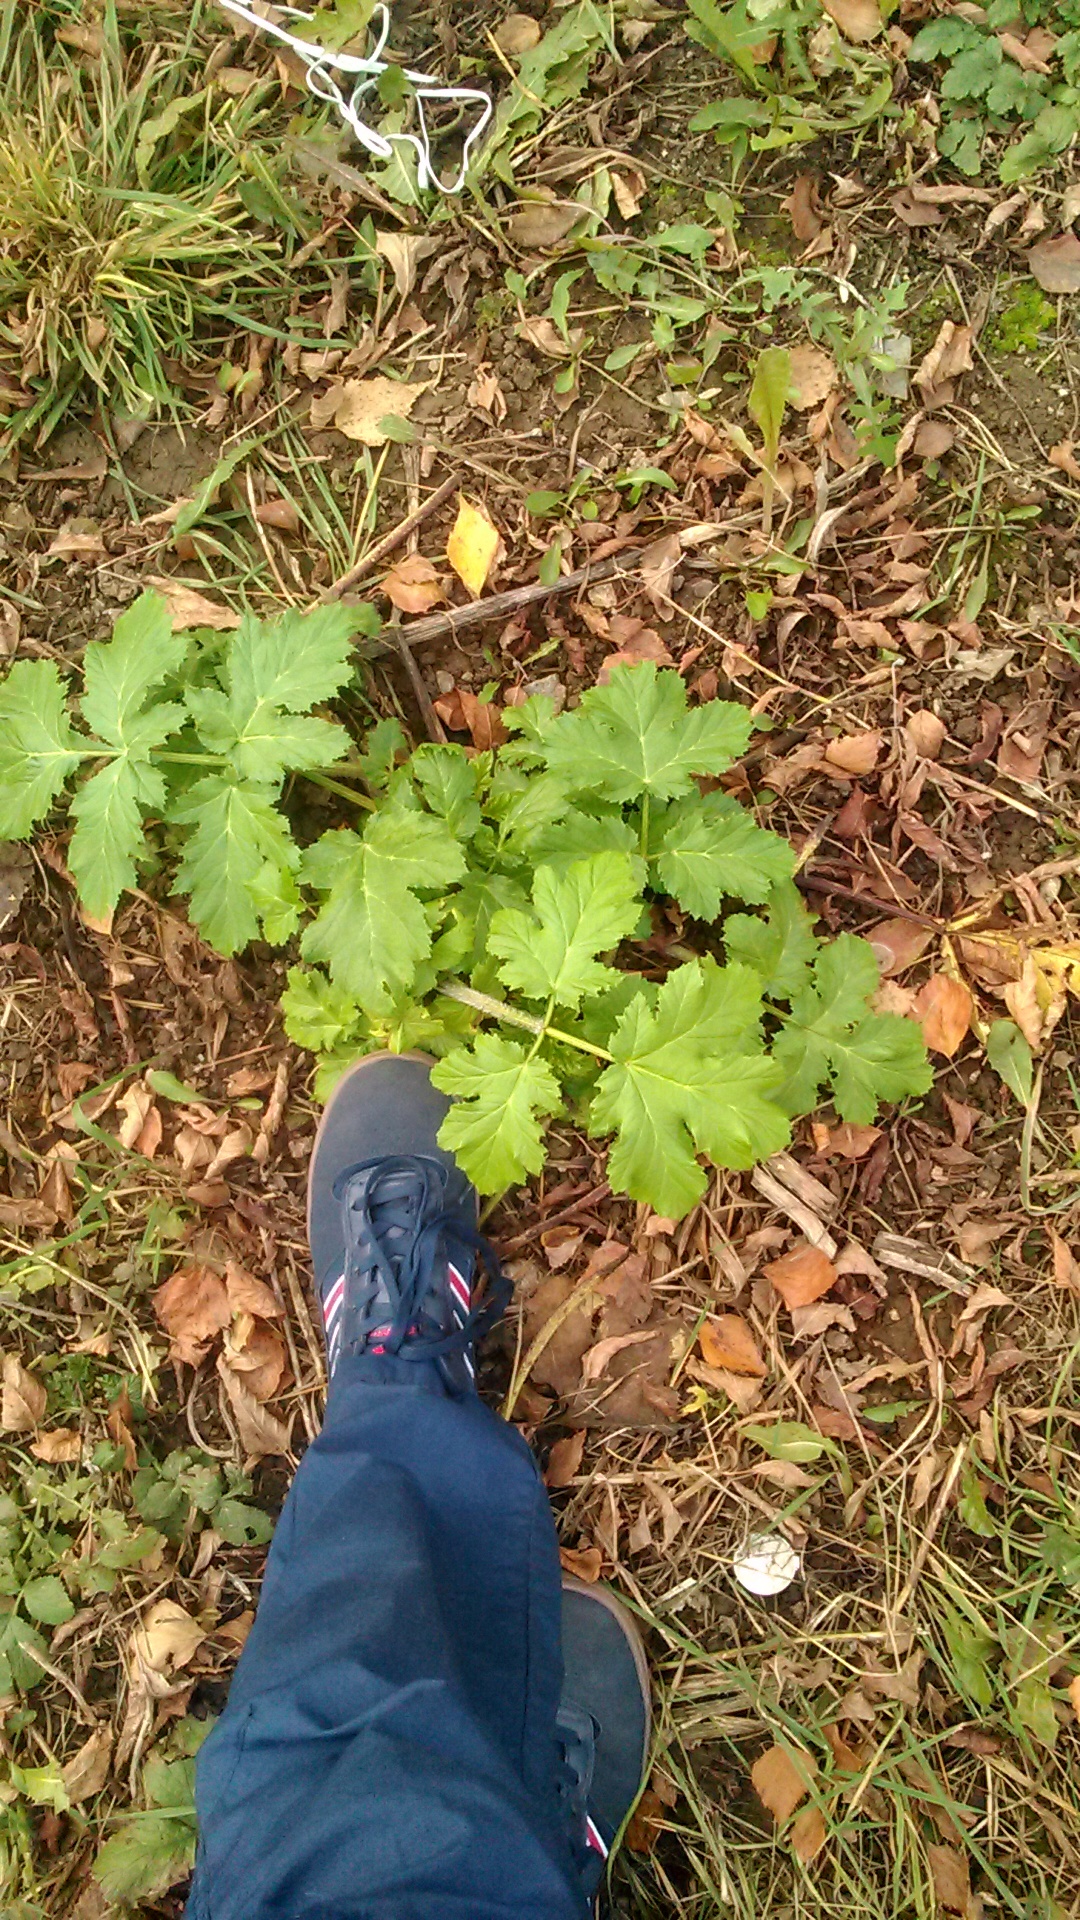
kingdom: Plantae
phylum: Tracheophyta
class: Magnoliopsida
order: Apiales
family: Apiaceae
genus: Heracleum
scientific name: Heracleum sosnowskyi
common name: Sosnowsky's hogweed
